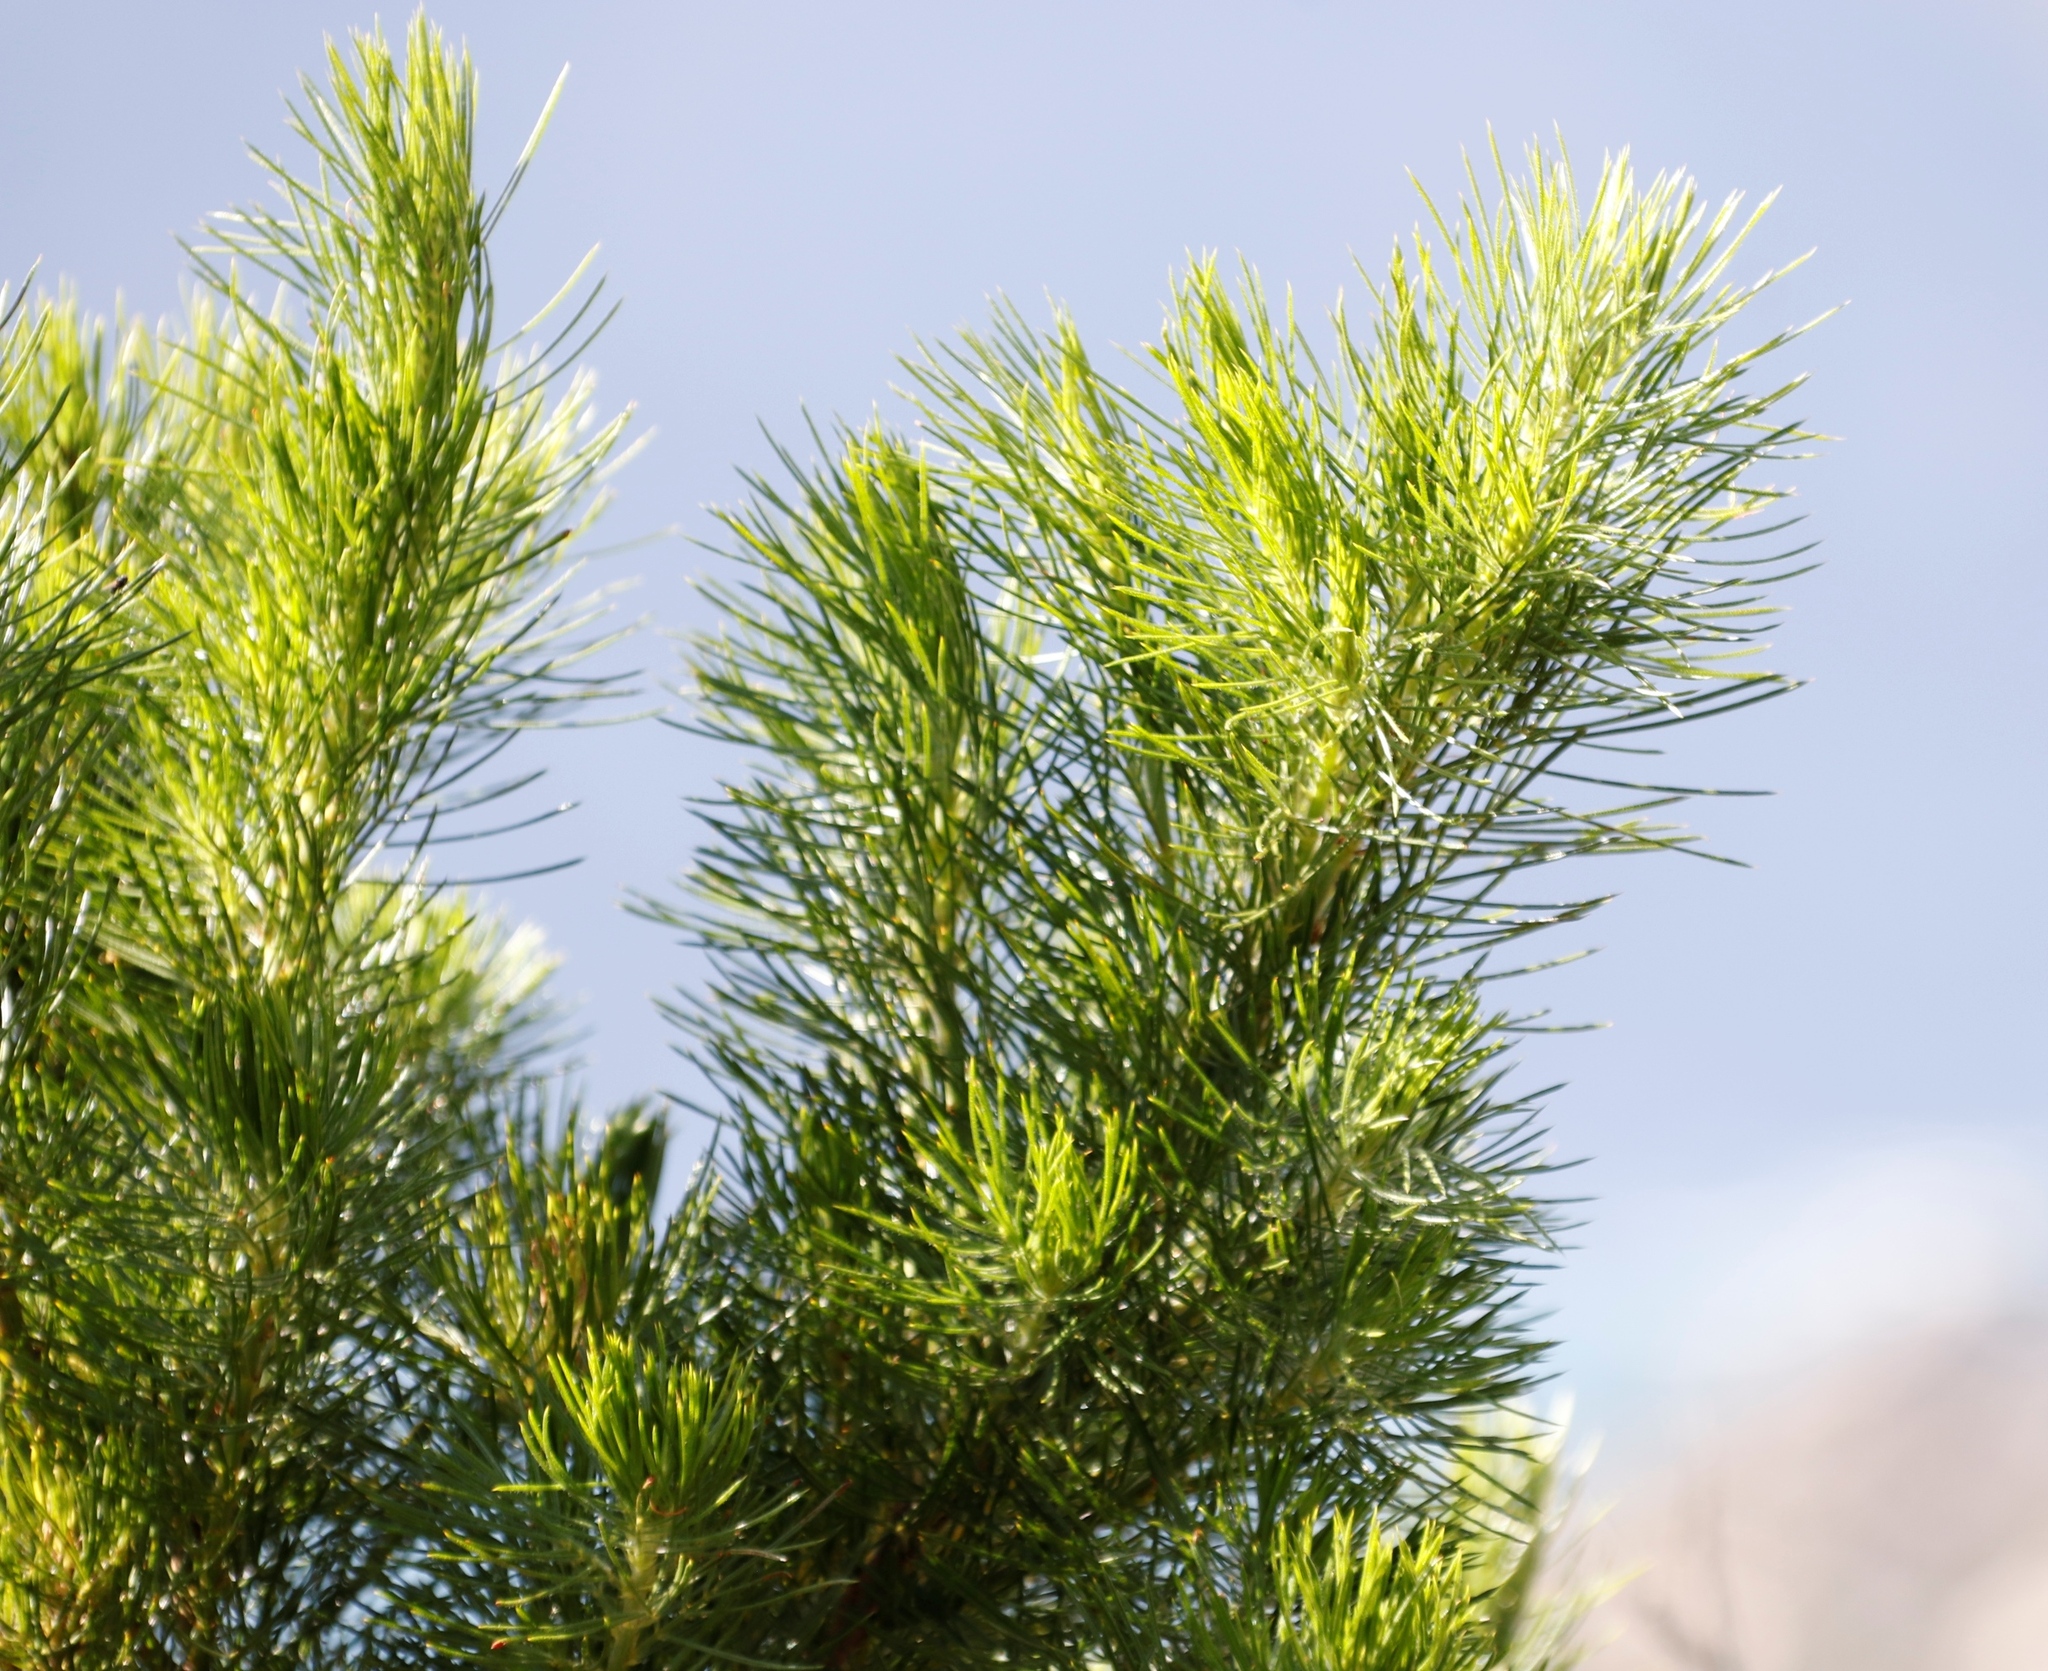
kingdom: Plantae
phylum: Tracheophyta
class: Magnoliopsida
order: Fabales
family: Fabaceae
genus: Psoralea
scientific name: Psoralea pinnata
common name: African scurfpea
